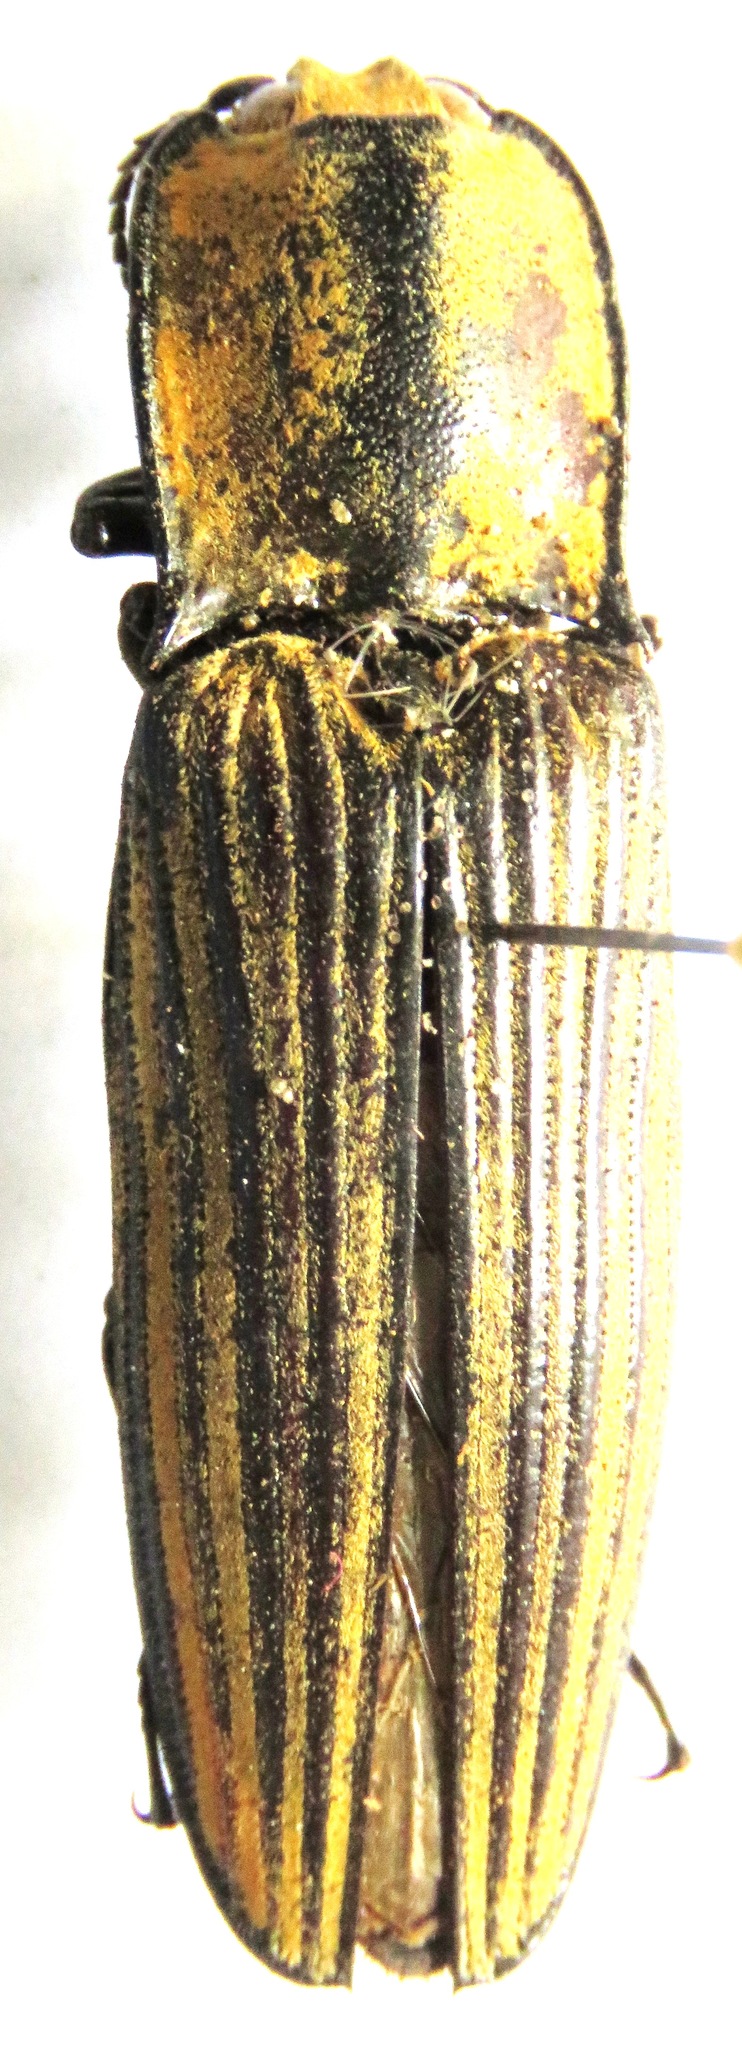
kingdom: Animalia
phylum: Arthropoda
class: Insecta
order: Coleoptera
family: Elateridae
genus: Alaus
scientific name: Alaus
